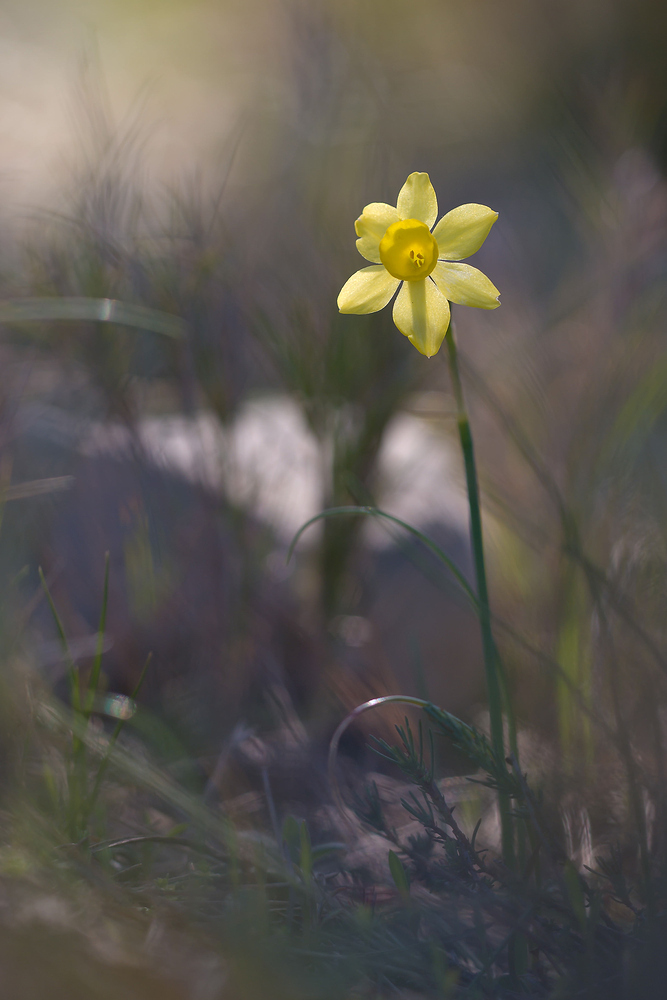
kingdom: Plantae
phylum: Tracheophyta
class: Liliopsida
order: Asparagales
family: Amaryllidaceae
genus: Narcissus
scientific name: Narcissus assoanus
